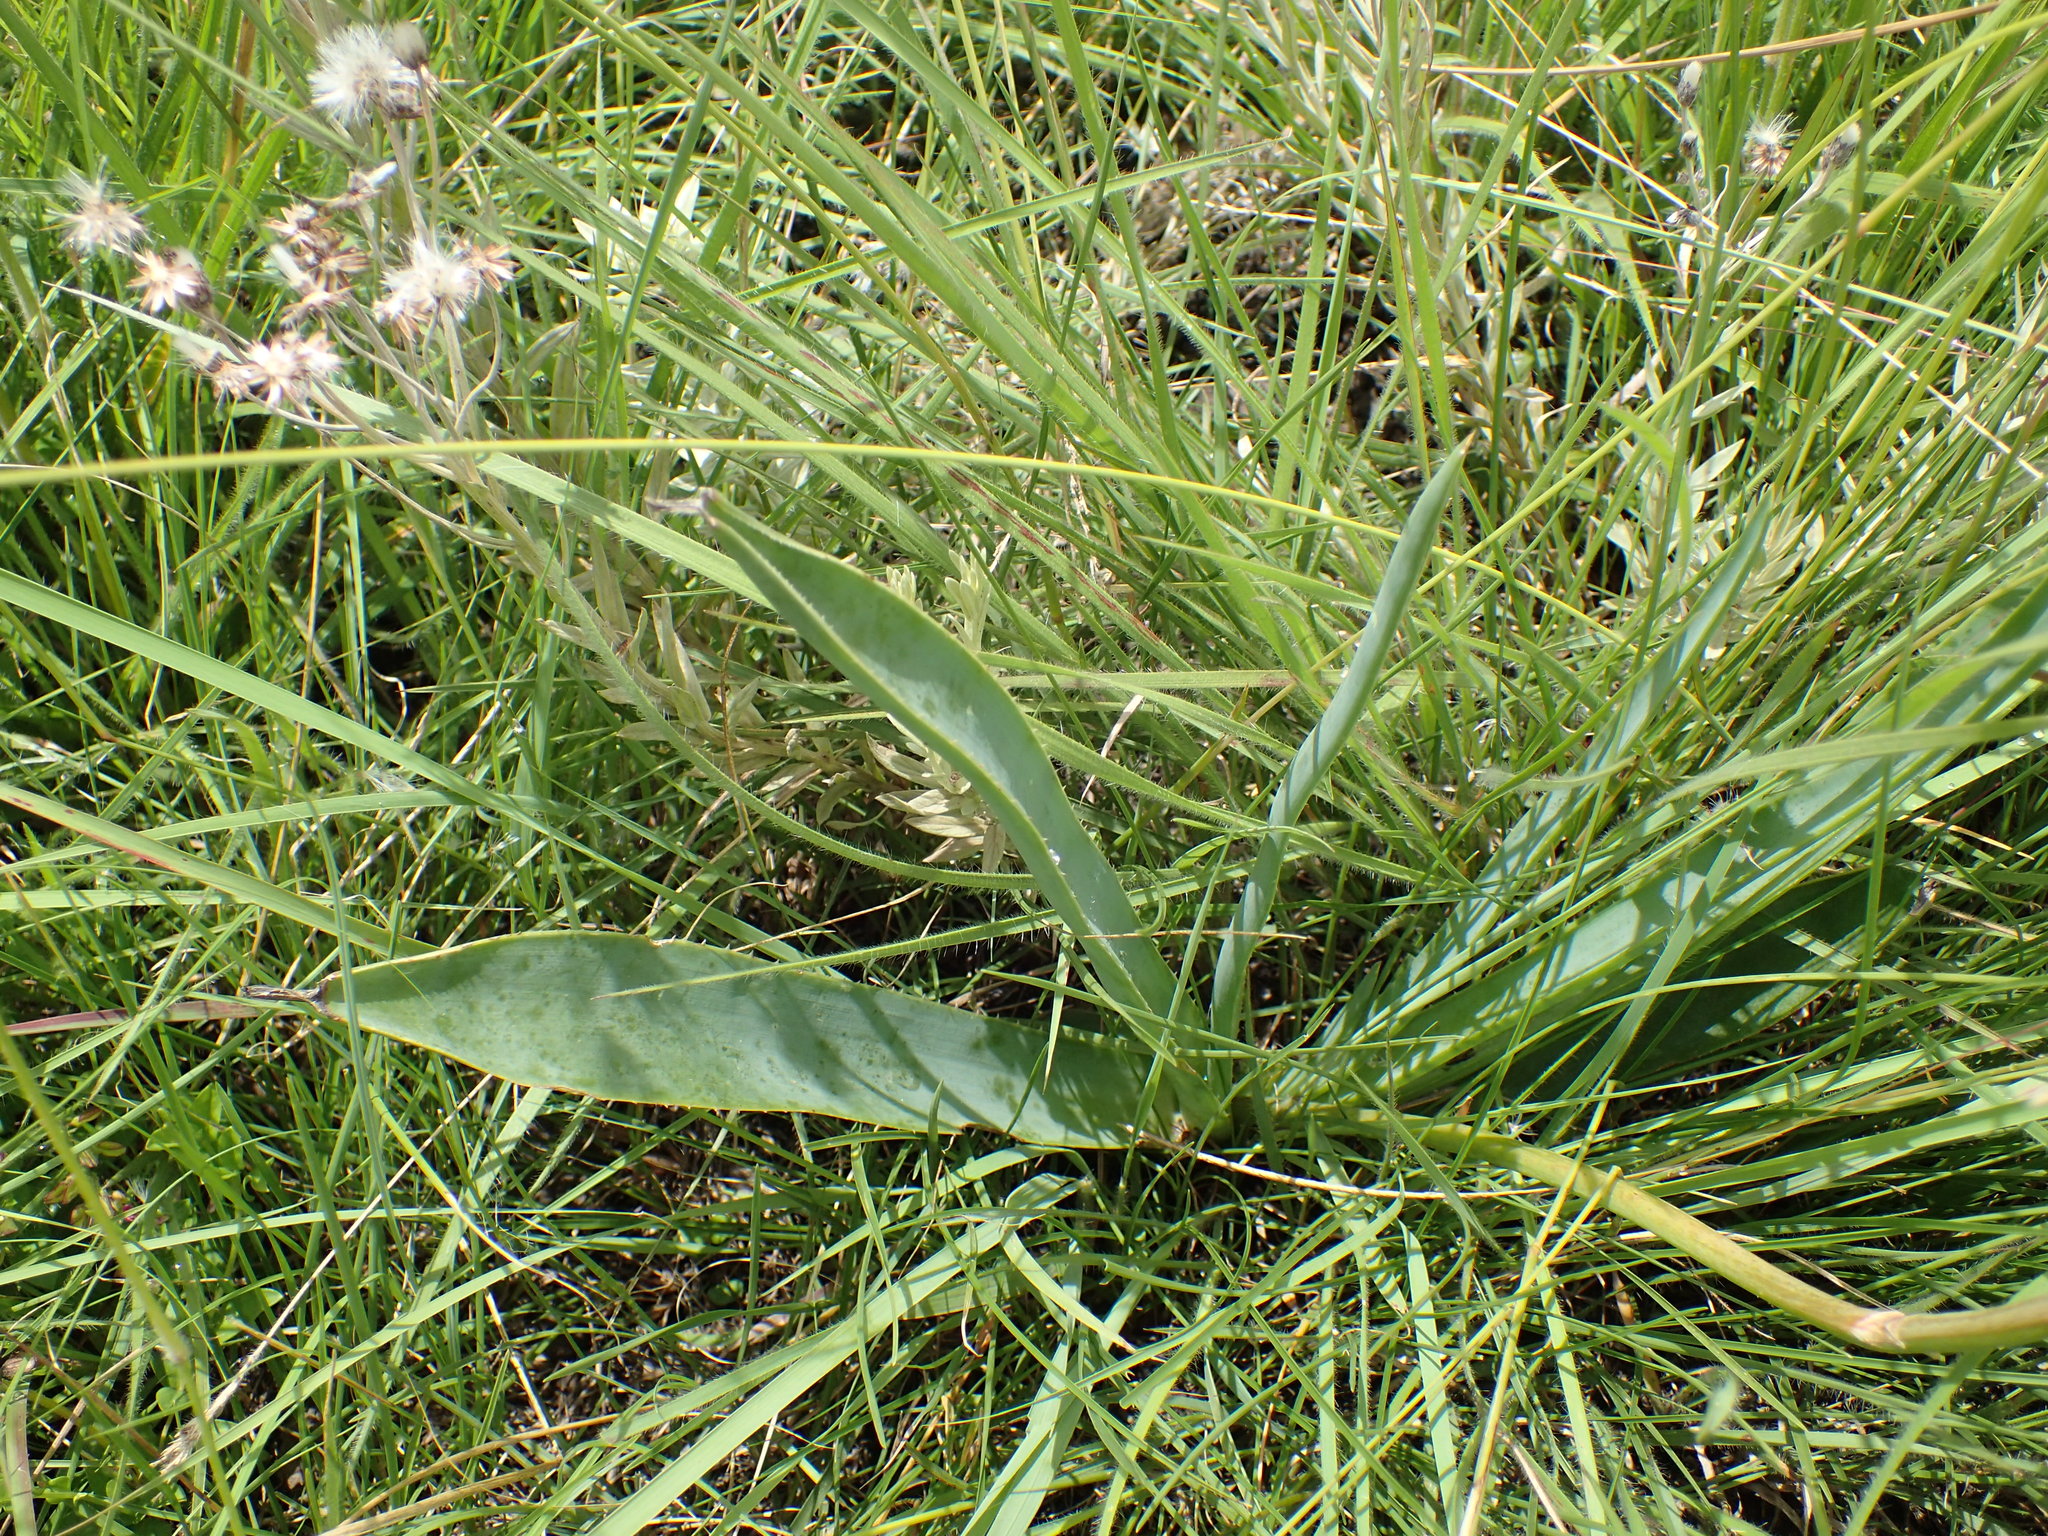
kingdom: Plantae
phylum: Tracheophyta
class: Liliopsida
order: Asparagales
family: Asphodelaceae
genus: Aloe
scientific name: Aloe boylei
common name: Broad-leaved grass aloe
